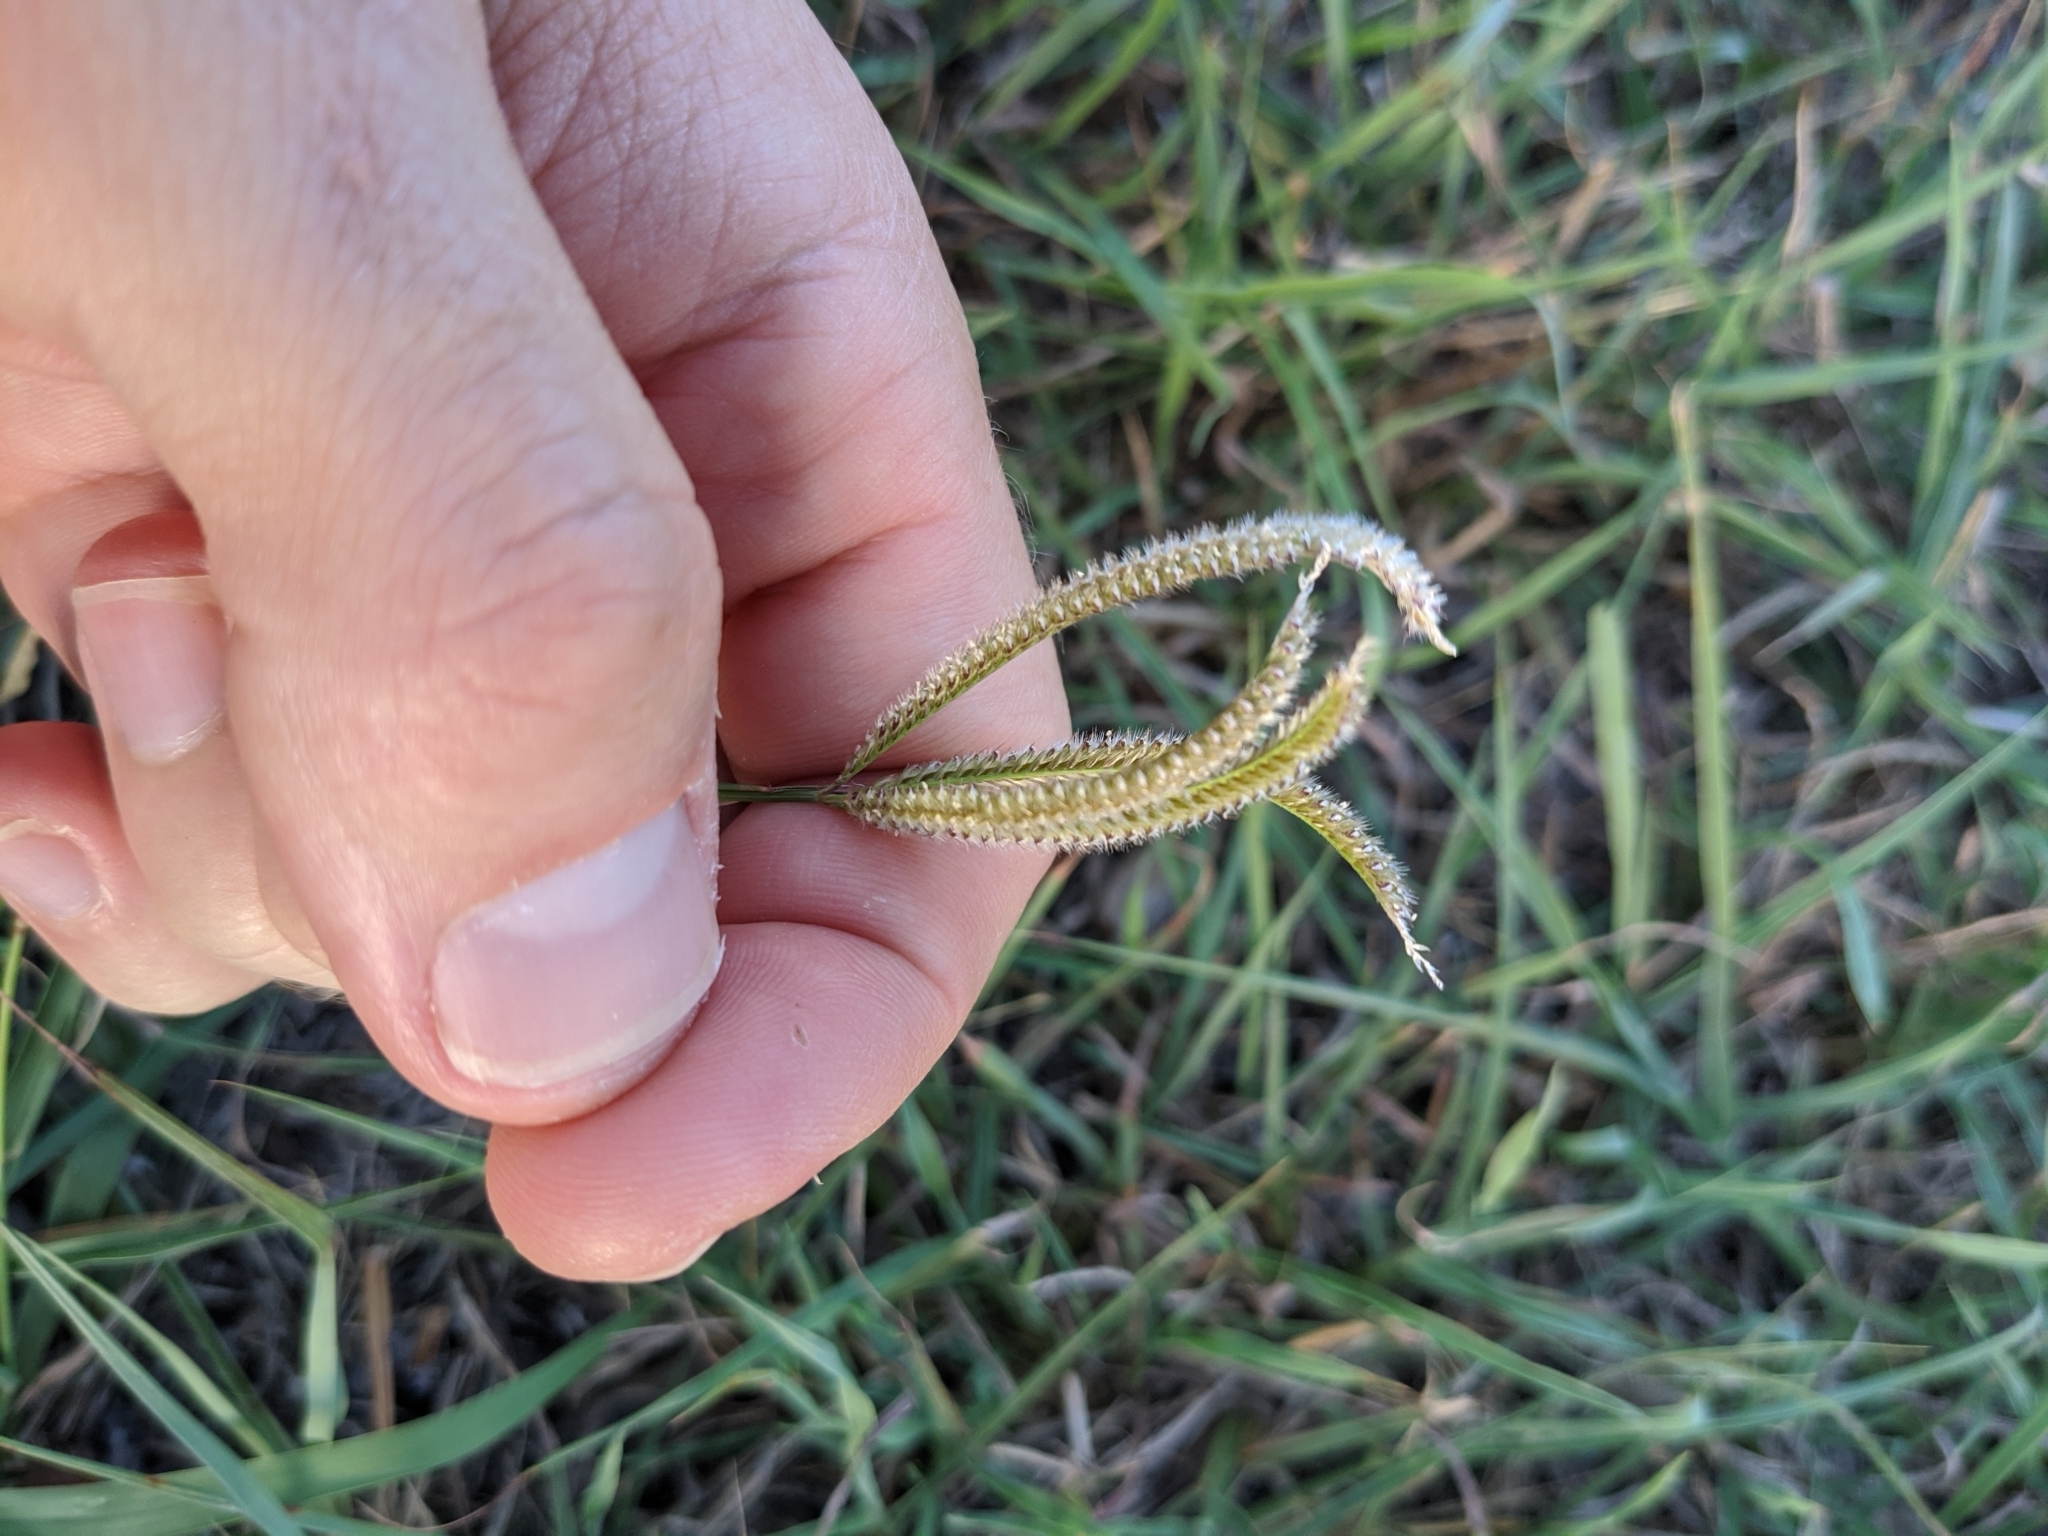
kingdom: Plantae
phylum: Tracheophyta
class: Liliopsida
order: Poales
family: Poaceae
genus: Stapfochloa
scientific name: Stapfochloa ciliata
